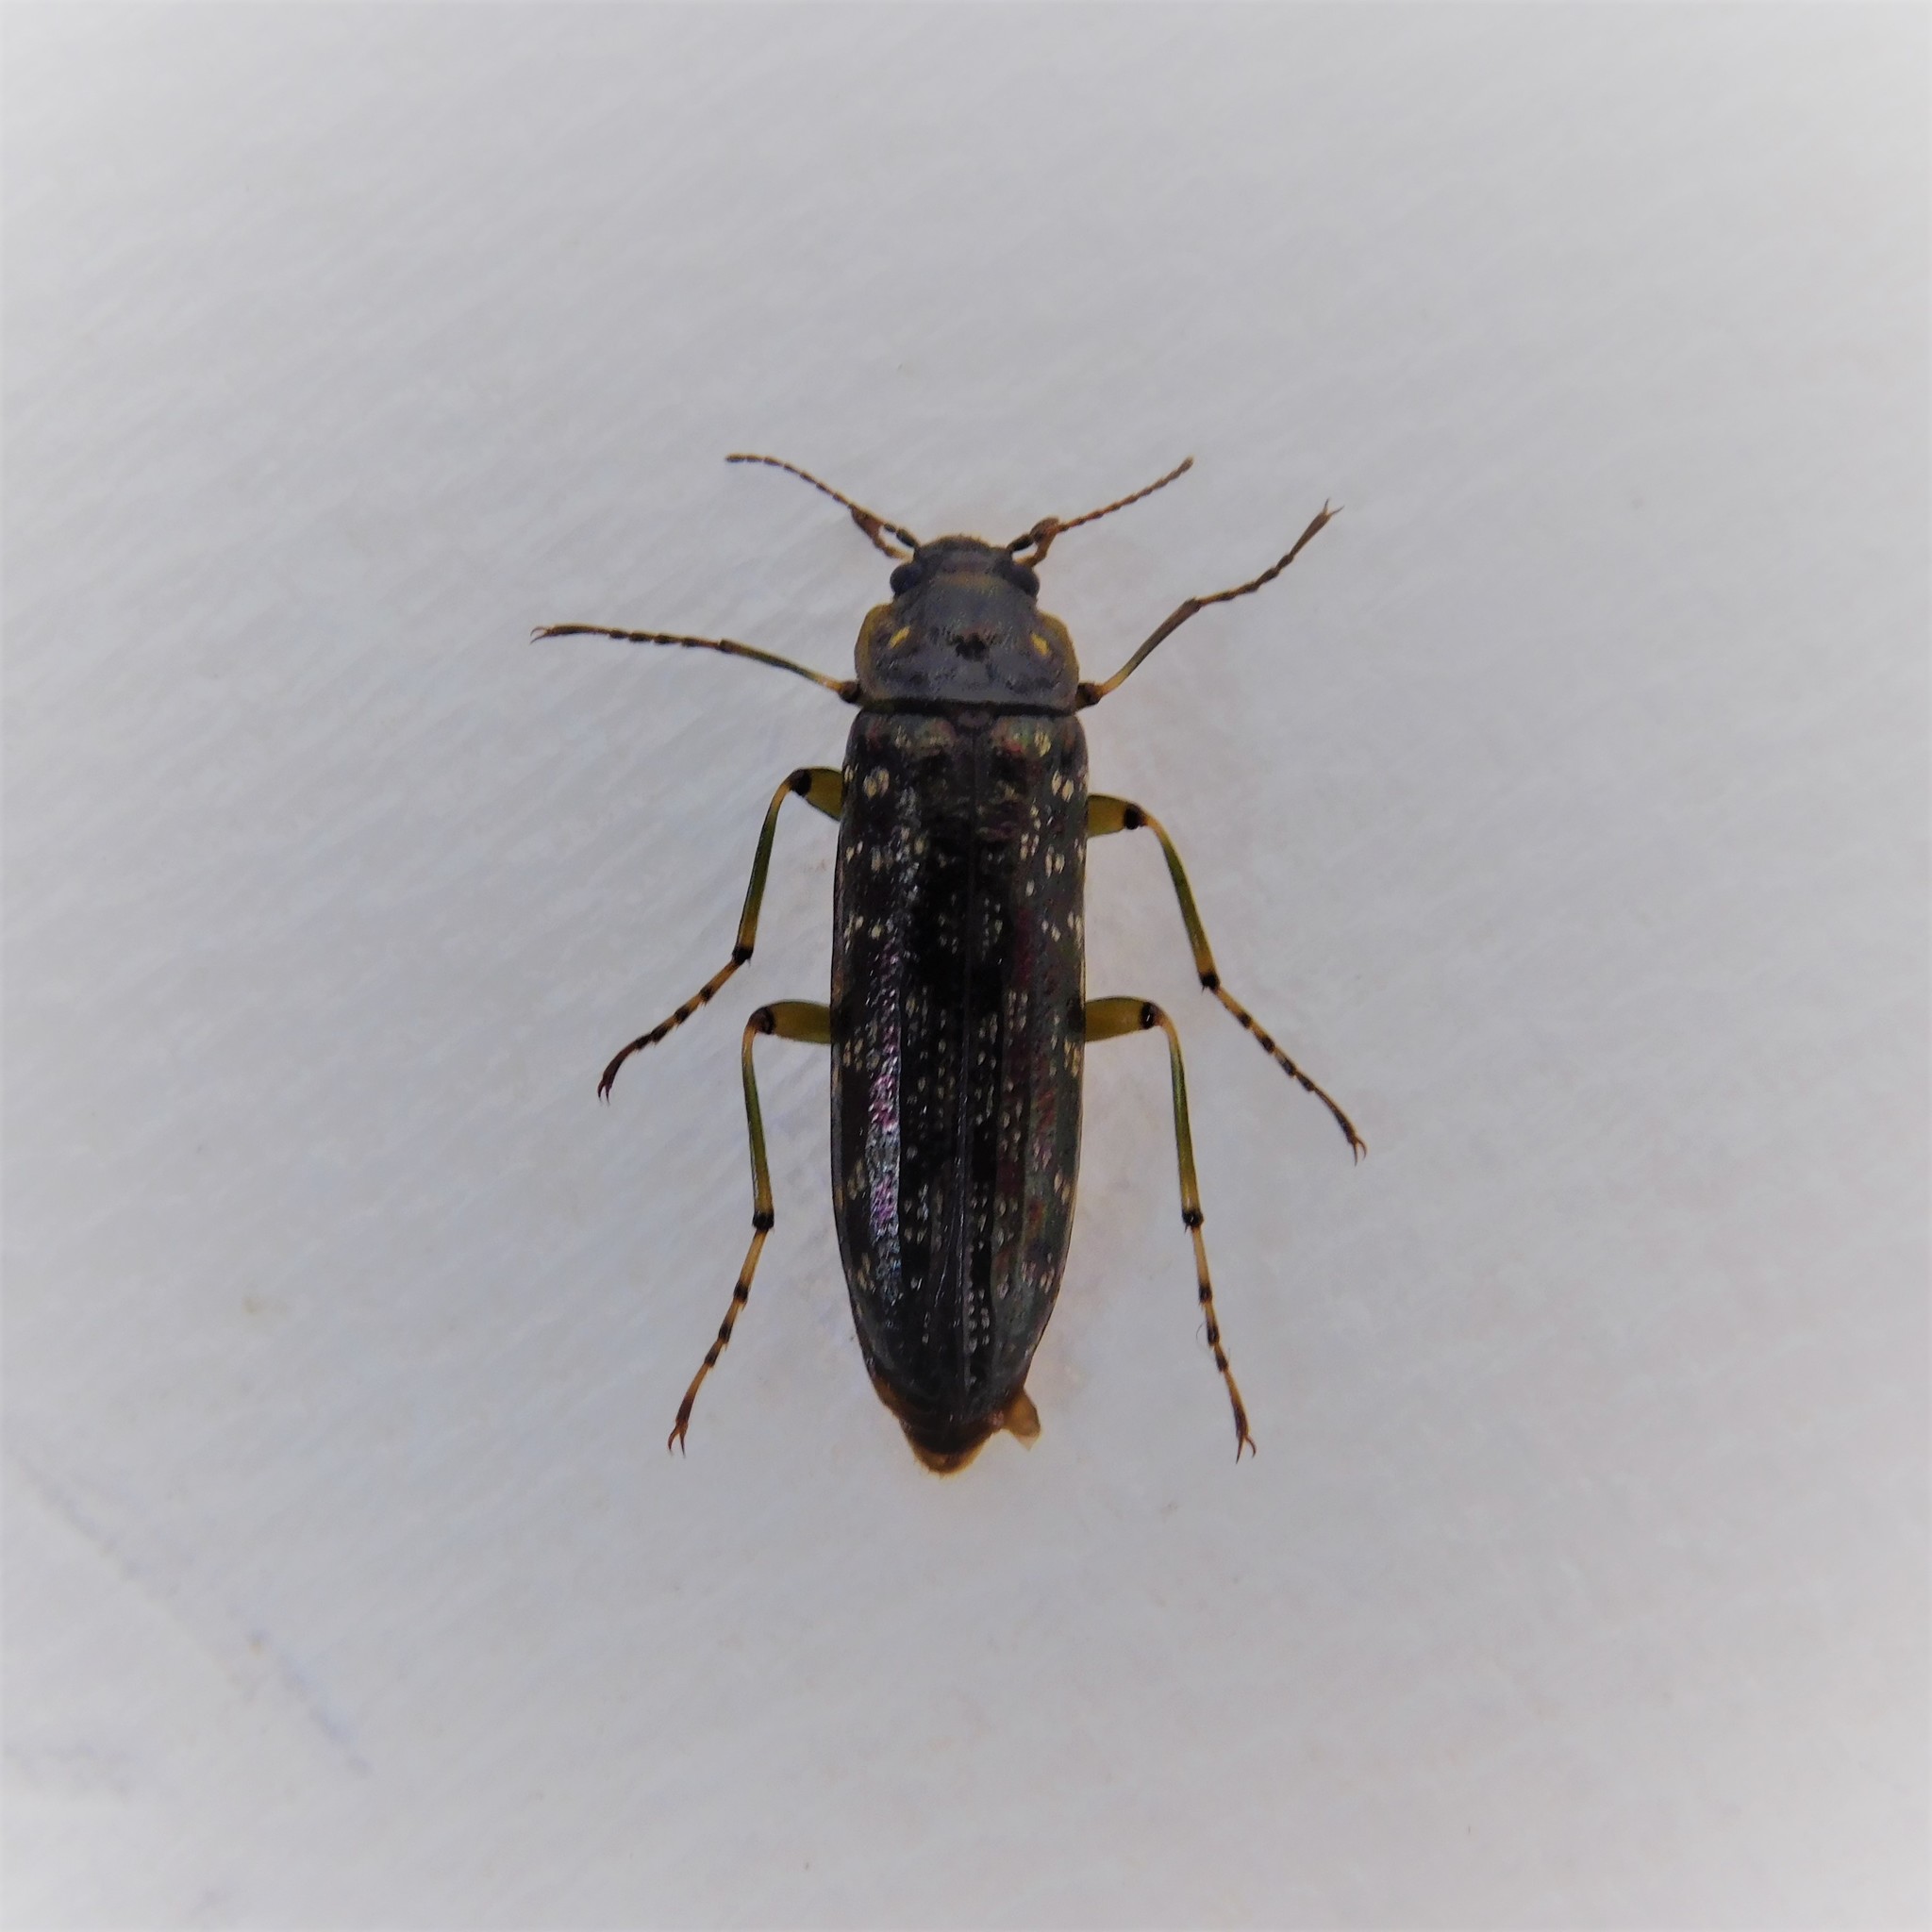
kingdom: Animalia
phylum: Arthropoda
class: Insecta
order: Coleoptera
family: Chalcodryidae
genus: Chalcodrya
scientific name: Chalcodrya
